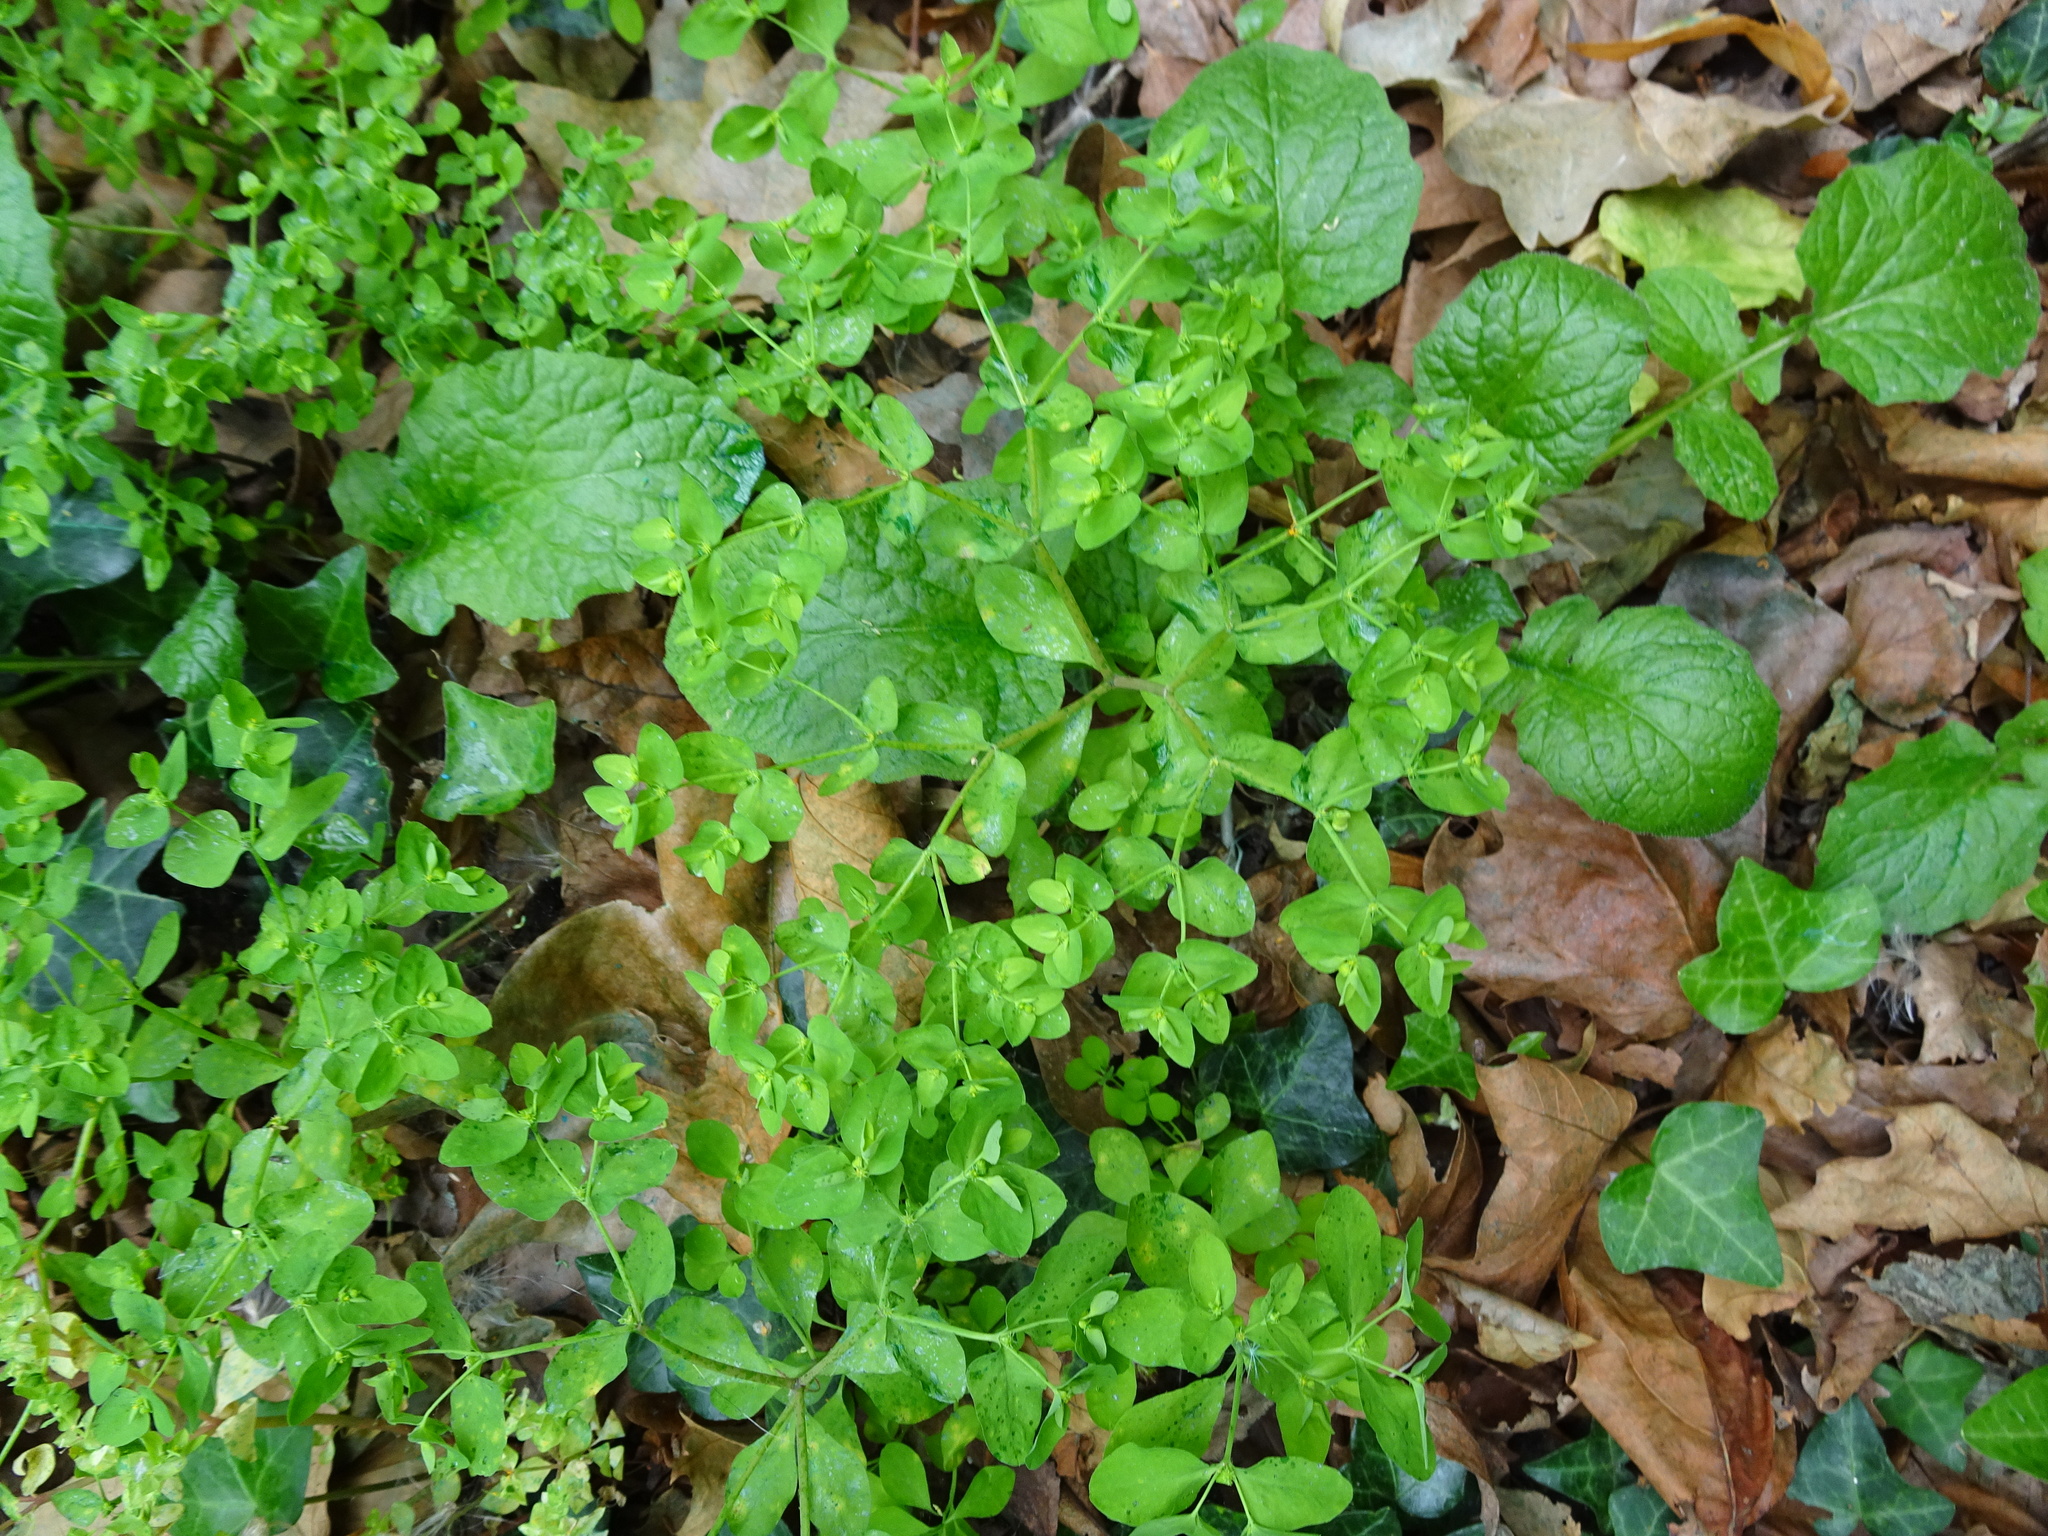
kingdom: Plantae
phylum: Tracheophyta
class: Magnoliopsida
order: Malpighiales
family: Euphorbiaceae
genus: Euphorbia
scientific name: Euphorbia peplus
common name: Petty spurge
